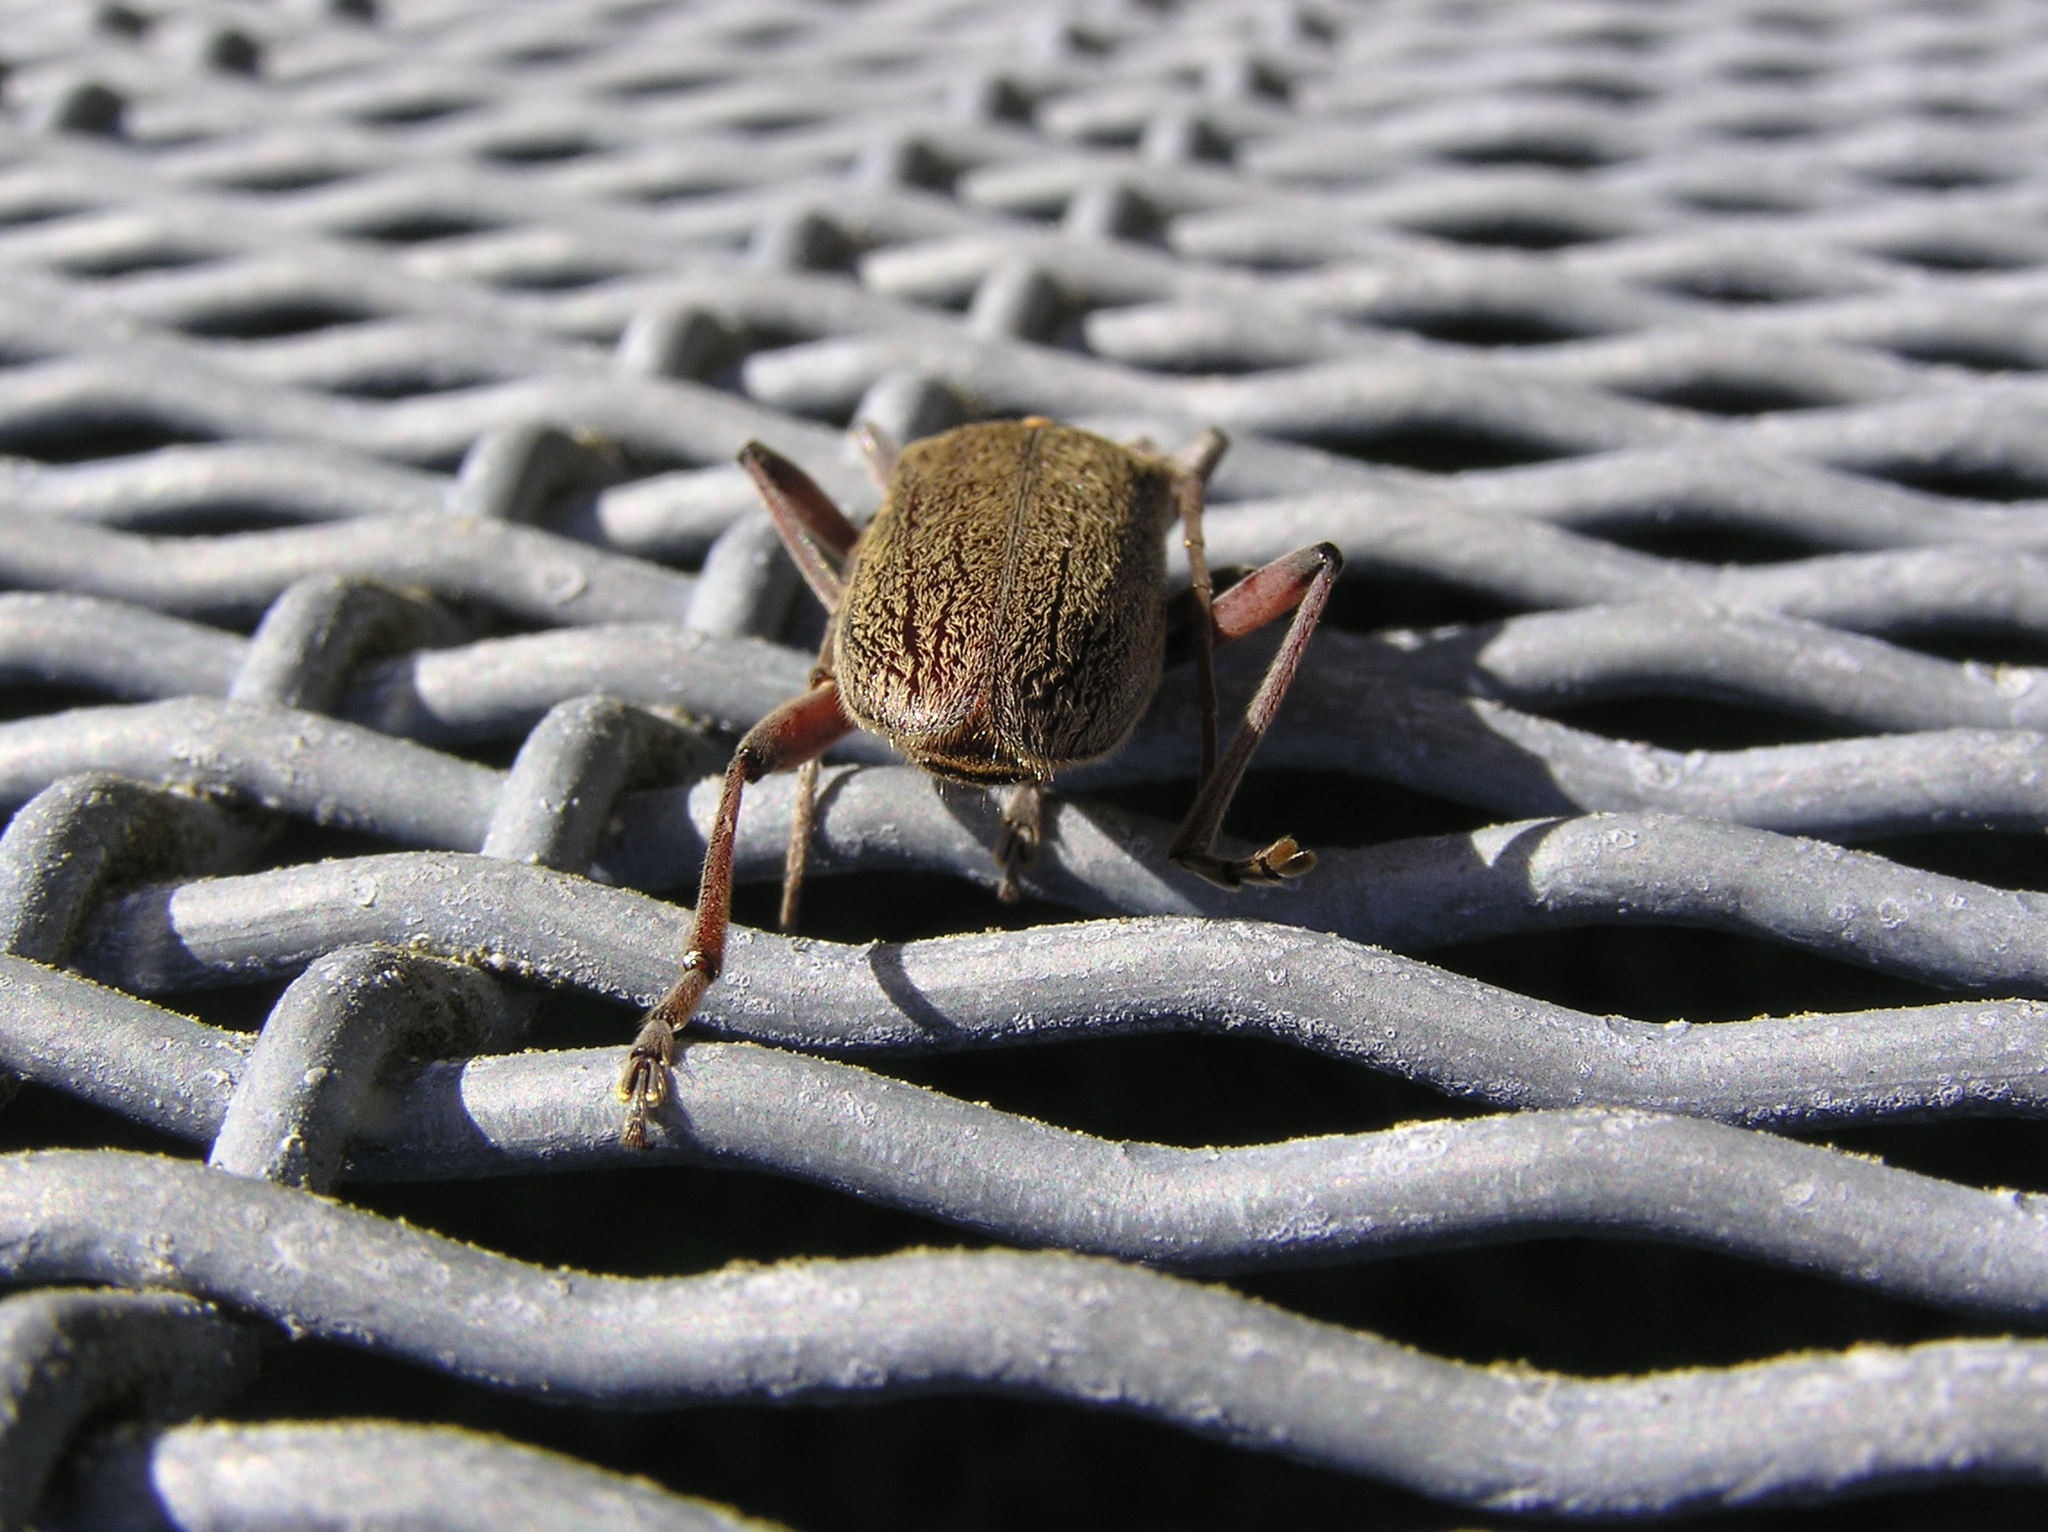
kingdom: Animalia
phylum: Arthropoda
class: Insecta
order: Coleoptera
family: Cerambycidae
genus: Oemona
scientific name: Oemona hirta
